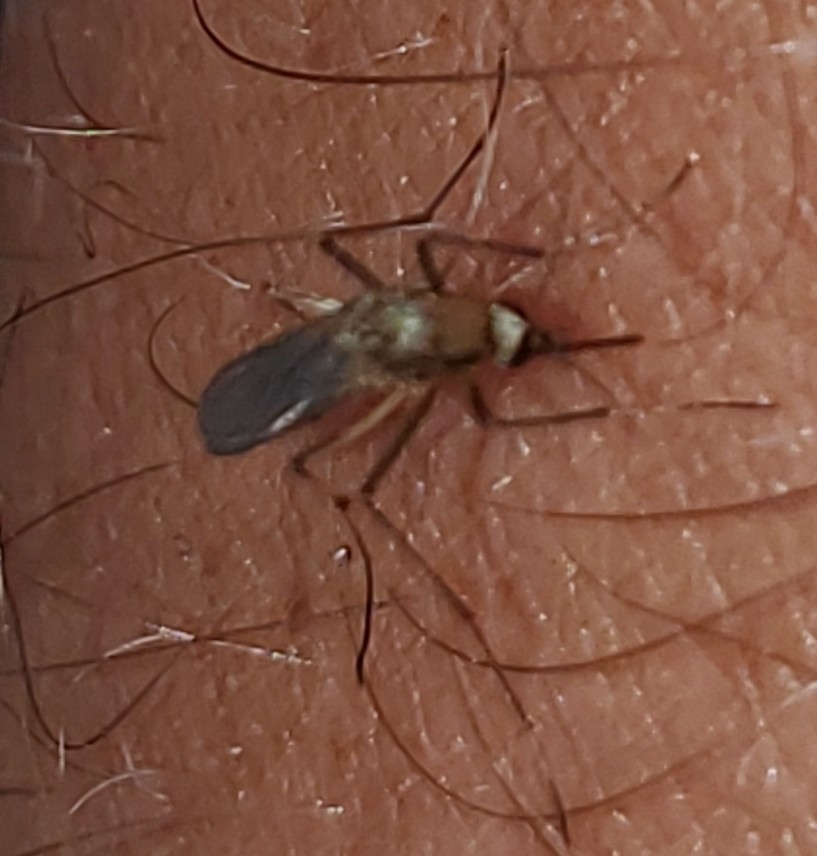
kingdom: Animalia
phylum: Arthropoda
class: Insecta
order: Diptera
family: Culicidae
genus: Aedes
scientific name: Aedes scapularis
